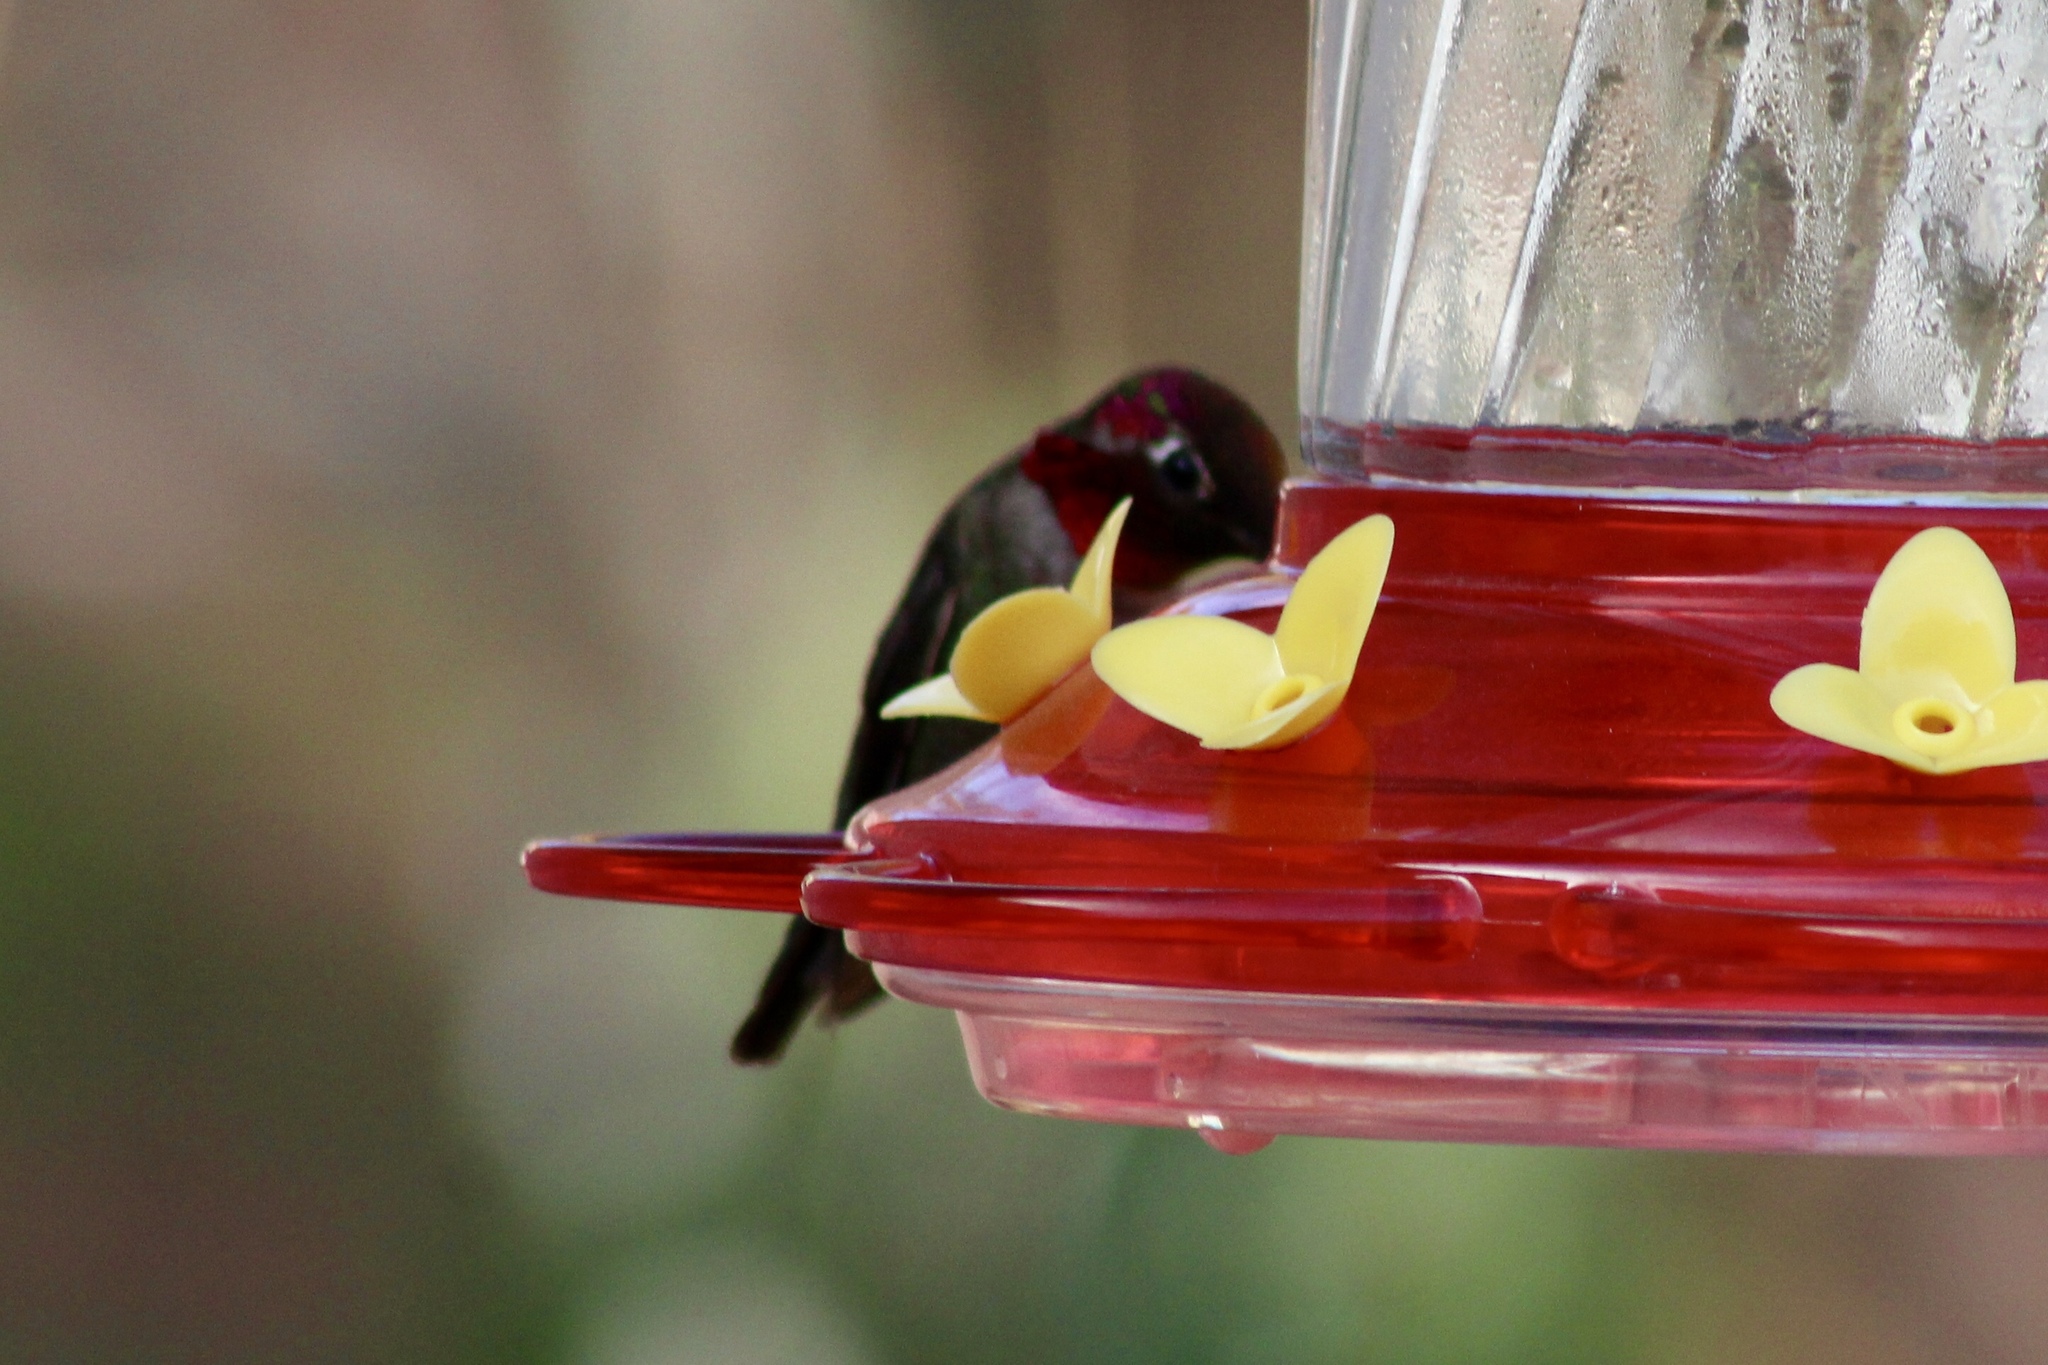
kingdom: Animalia
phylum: Chordata
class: Aves
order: Apodiformes
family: Trochilidae
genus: Calypte
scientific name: Calypte anna
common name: Anna's hummingbird
